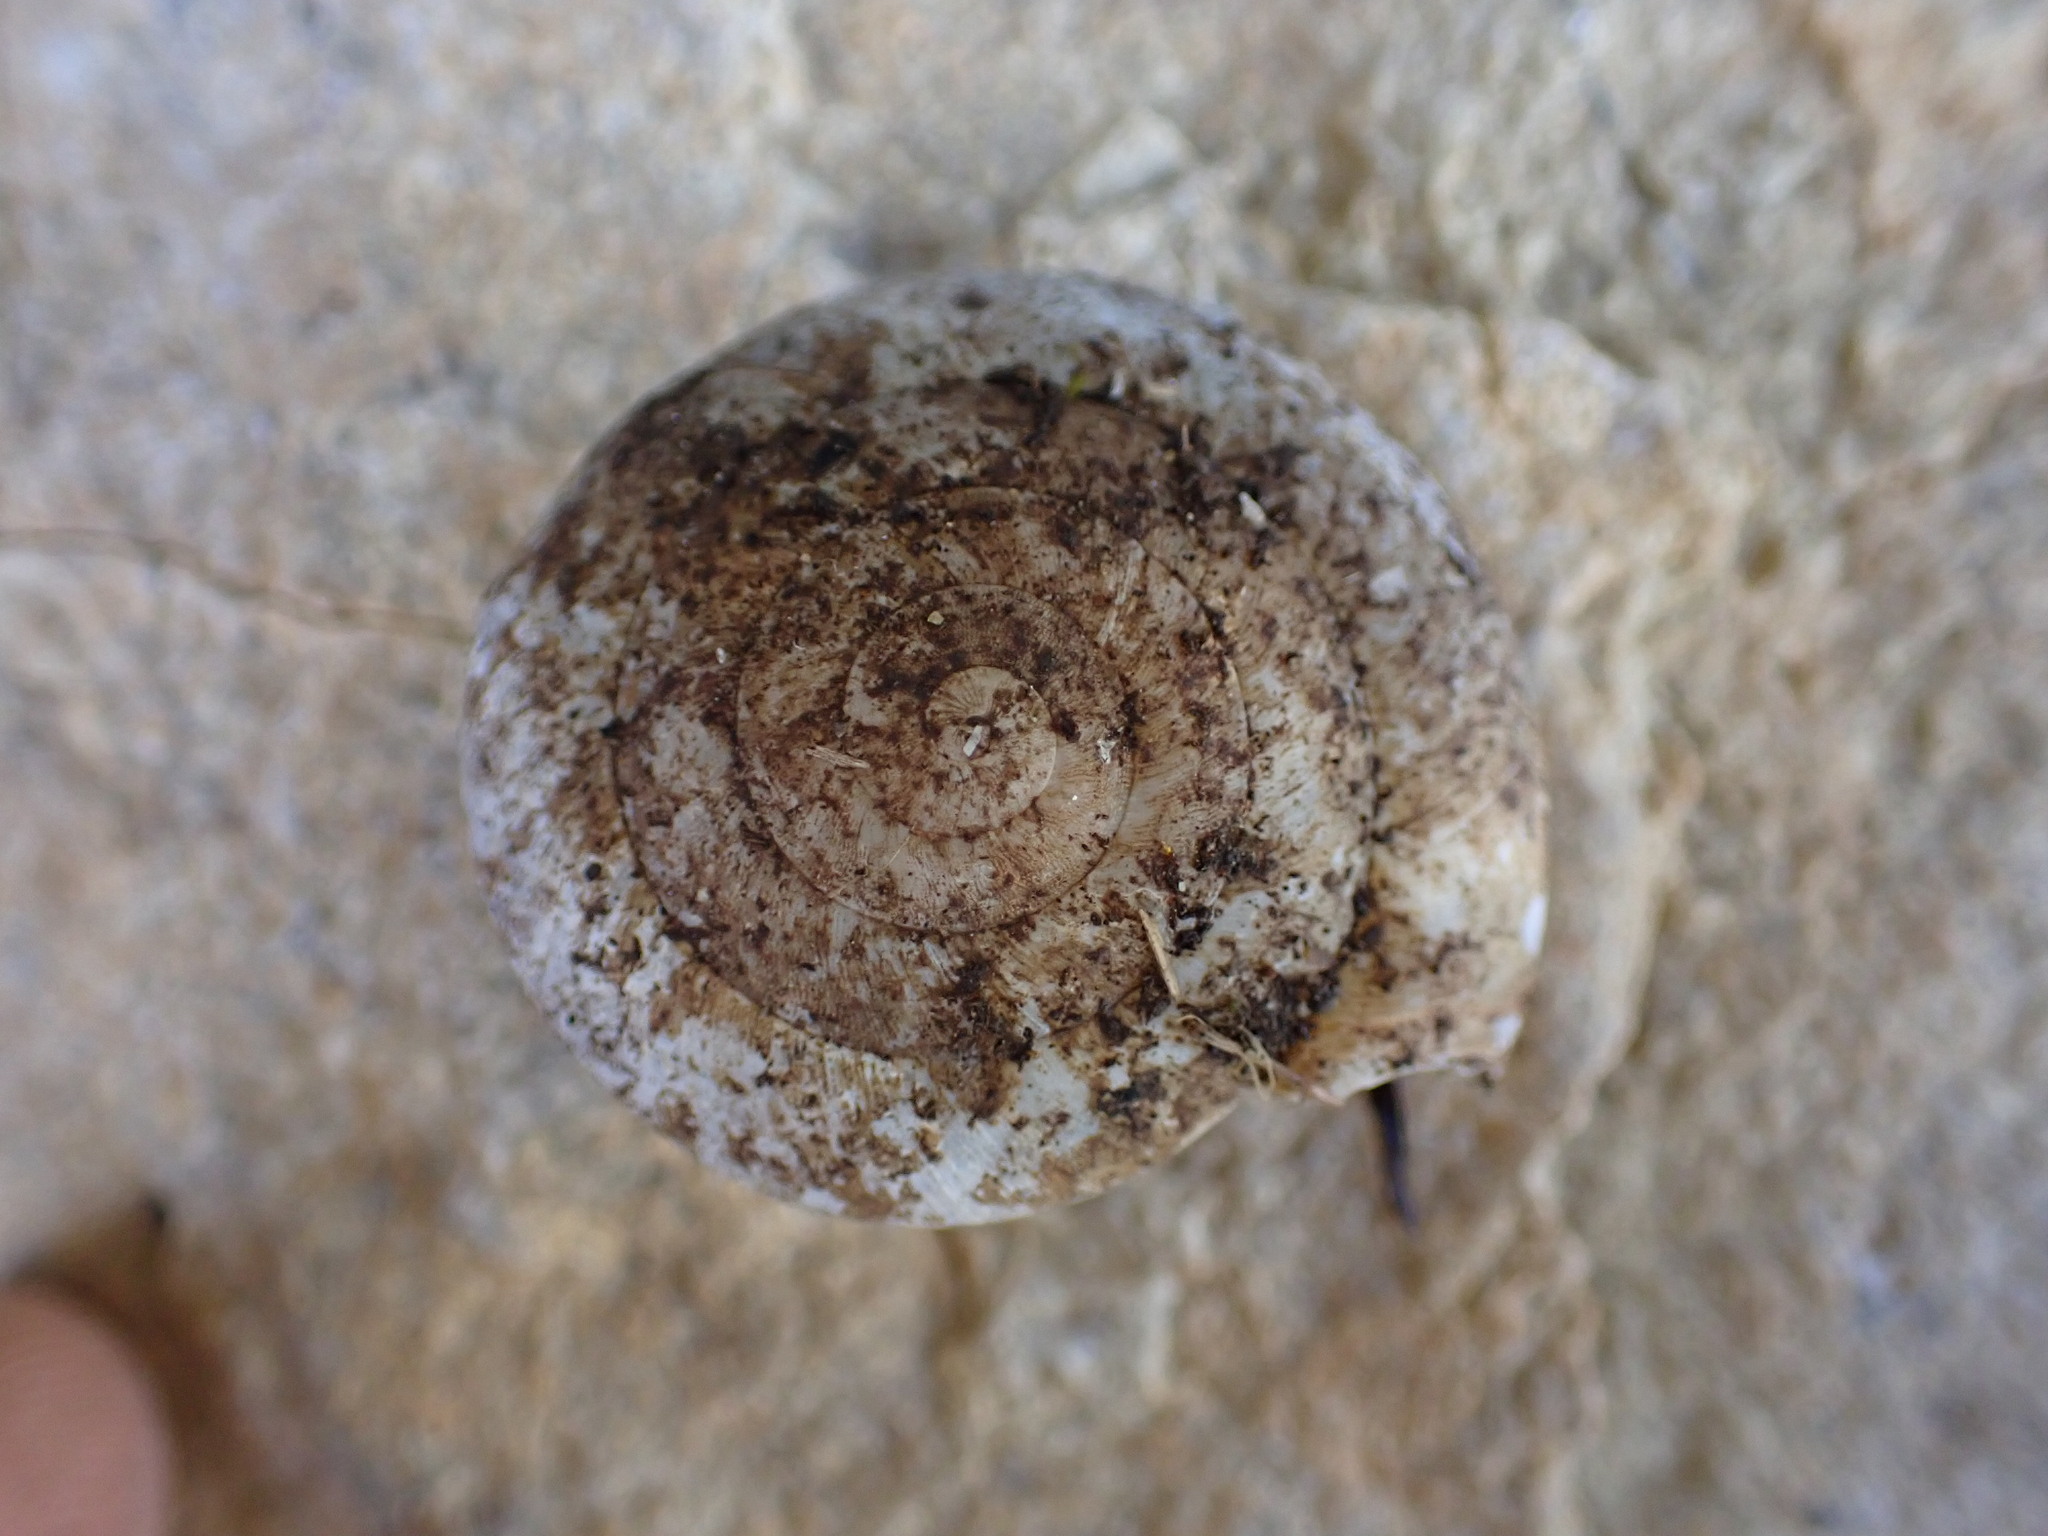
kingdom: Animalia
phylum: Mollusca
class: Gastropoda
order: Stylommatophora
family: Zonitidae
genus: Zonites
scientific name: Zonites algirus
